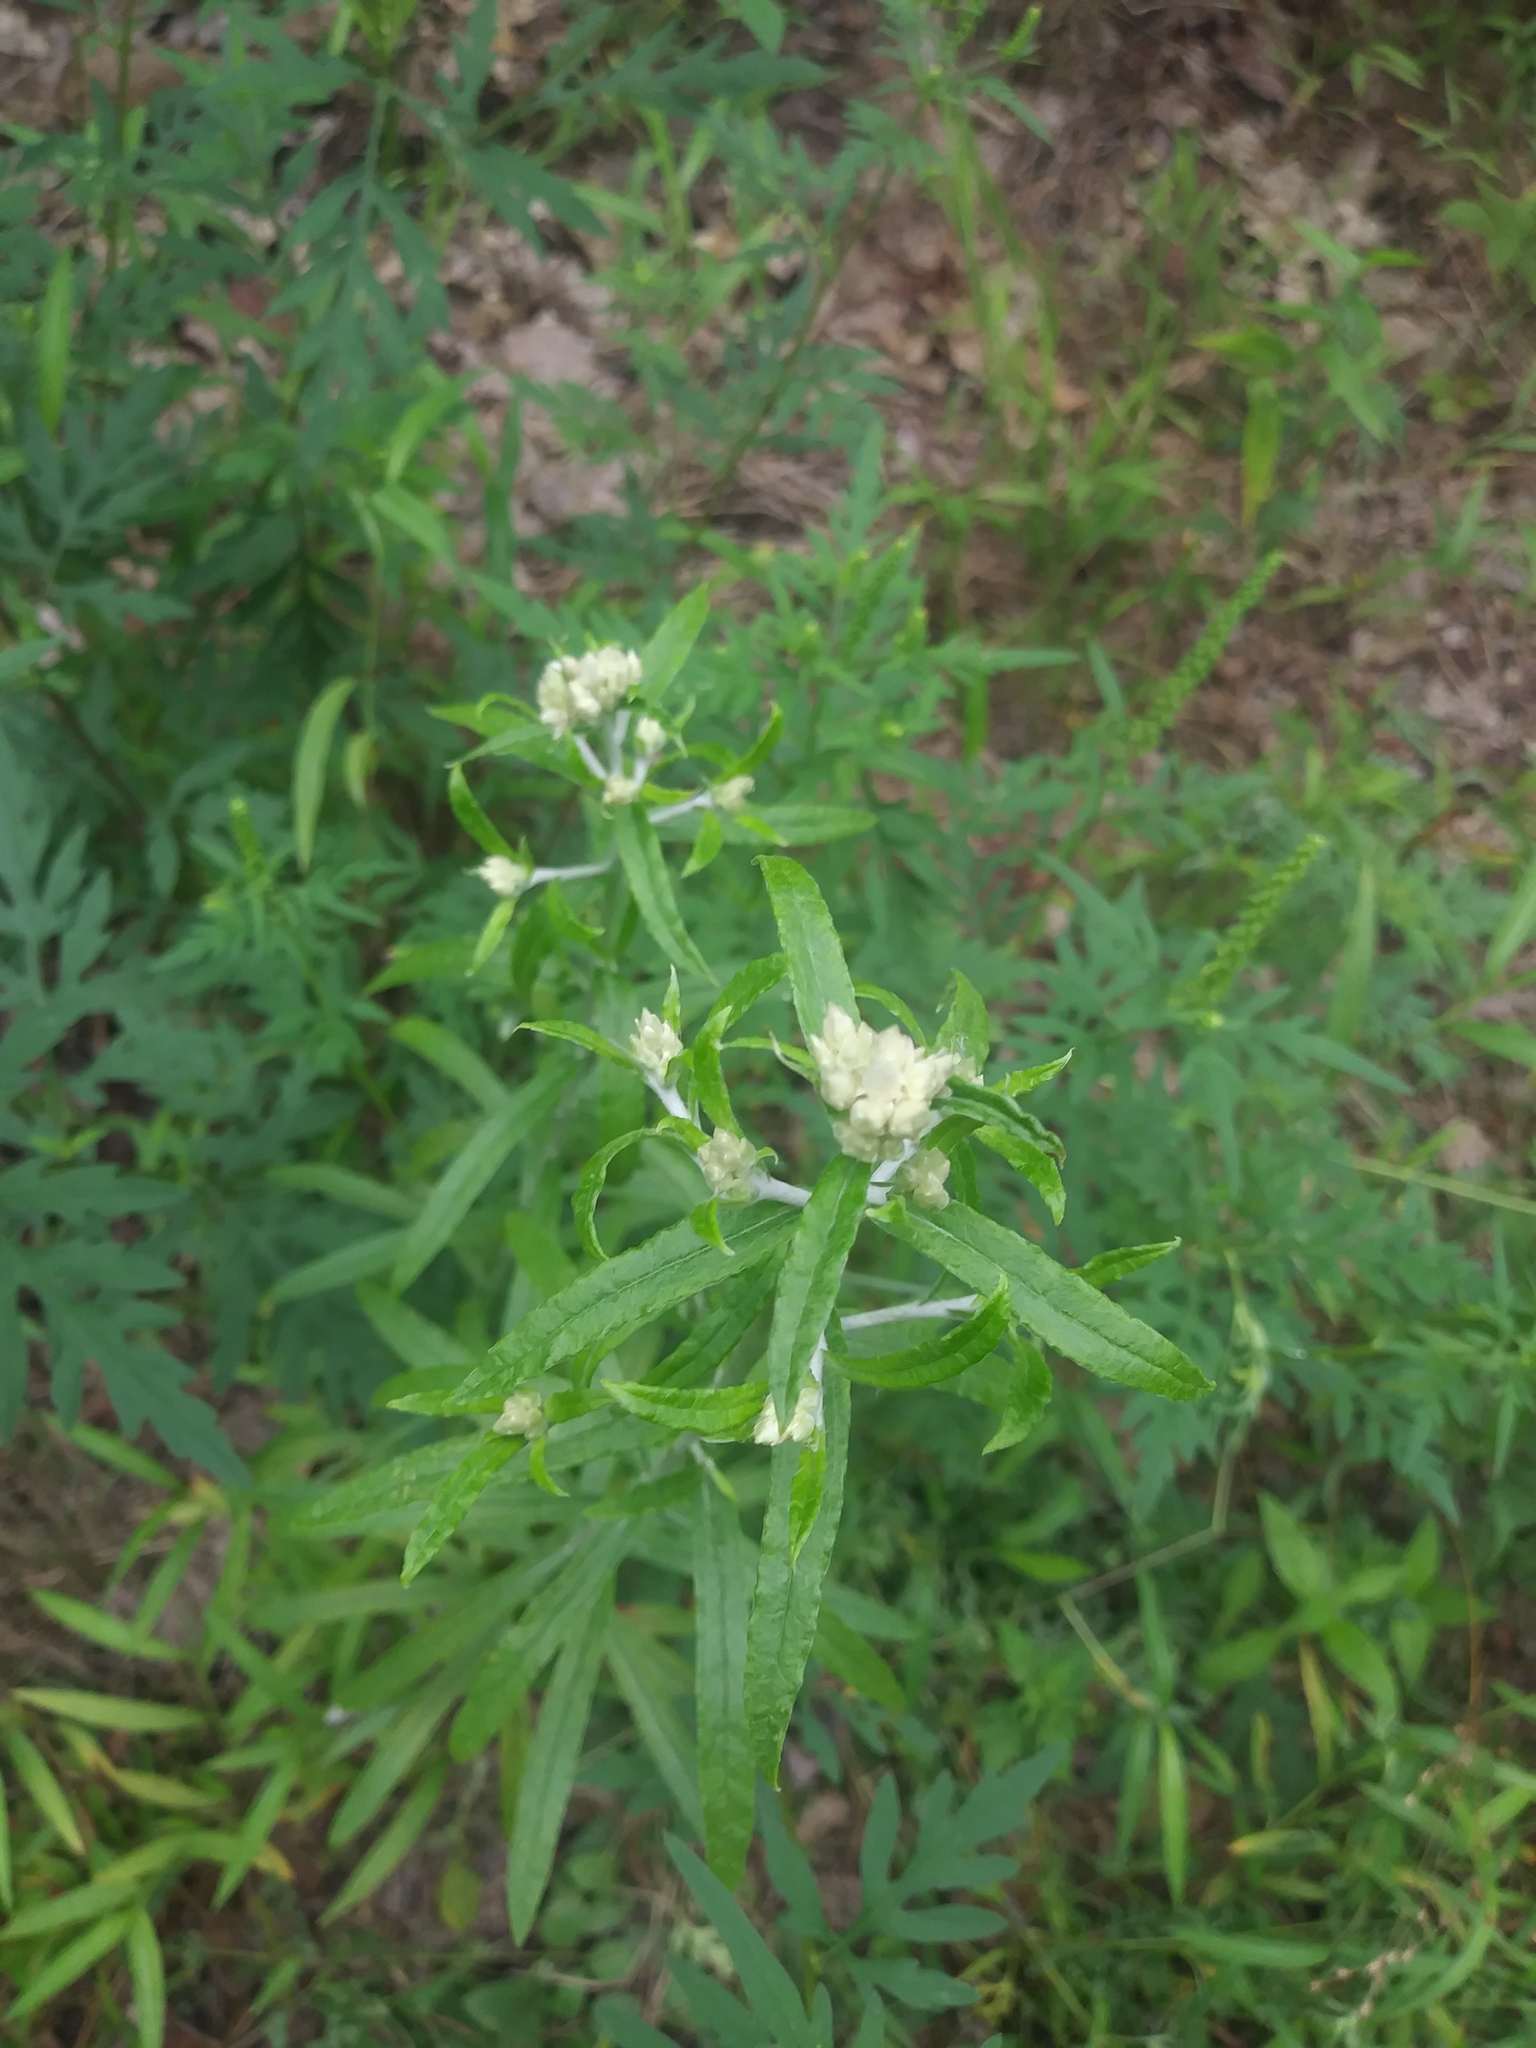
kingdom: Plantae
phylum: Tracheophyta
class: Magnoliopsida
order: Asterales
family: Asteraceae
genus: Pseudognaphalium
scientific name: Pseudognaphalium obtusifolium
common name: Eastern rabbit-tobacco
